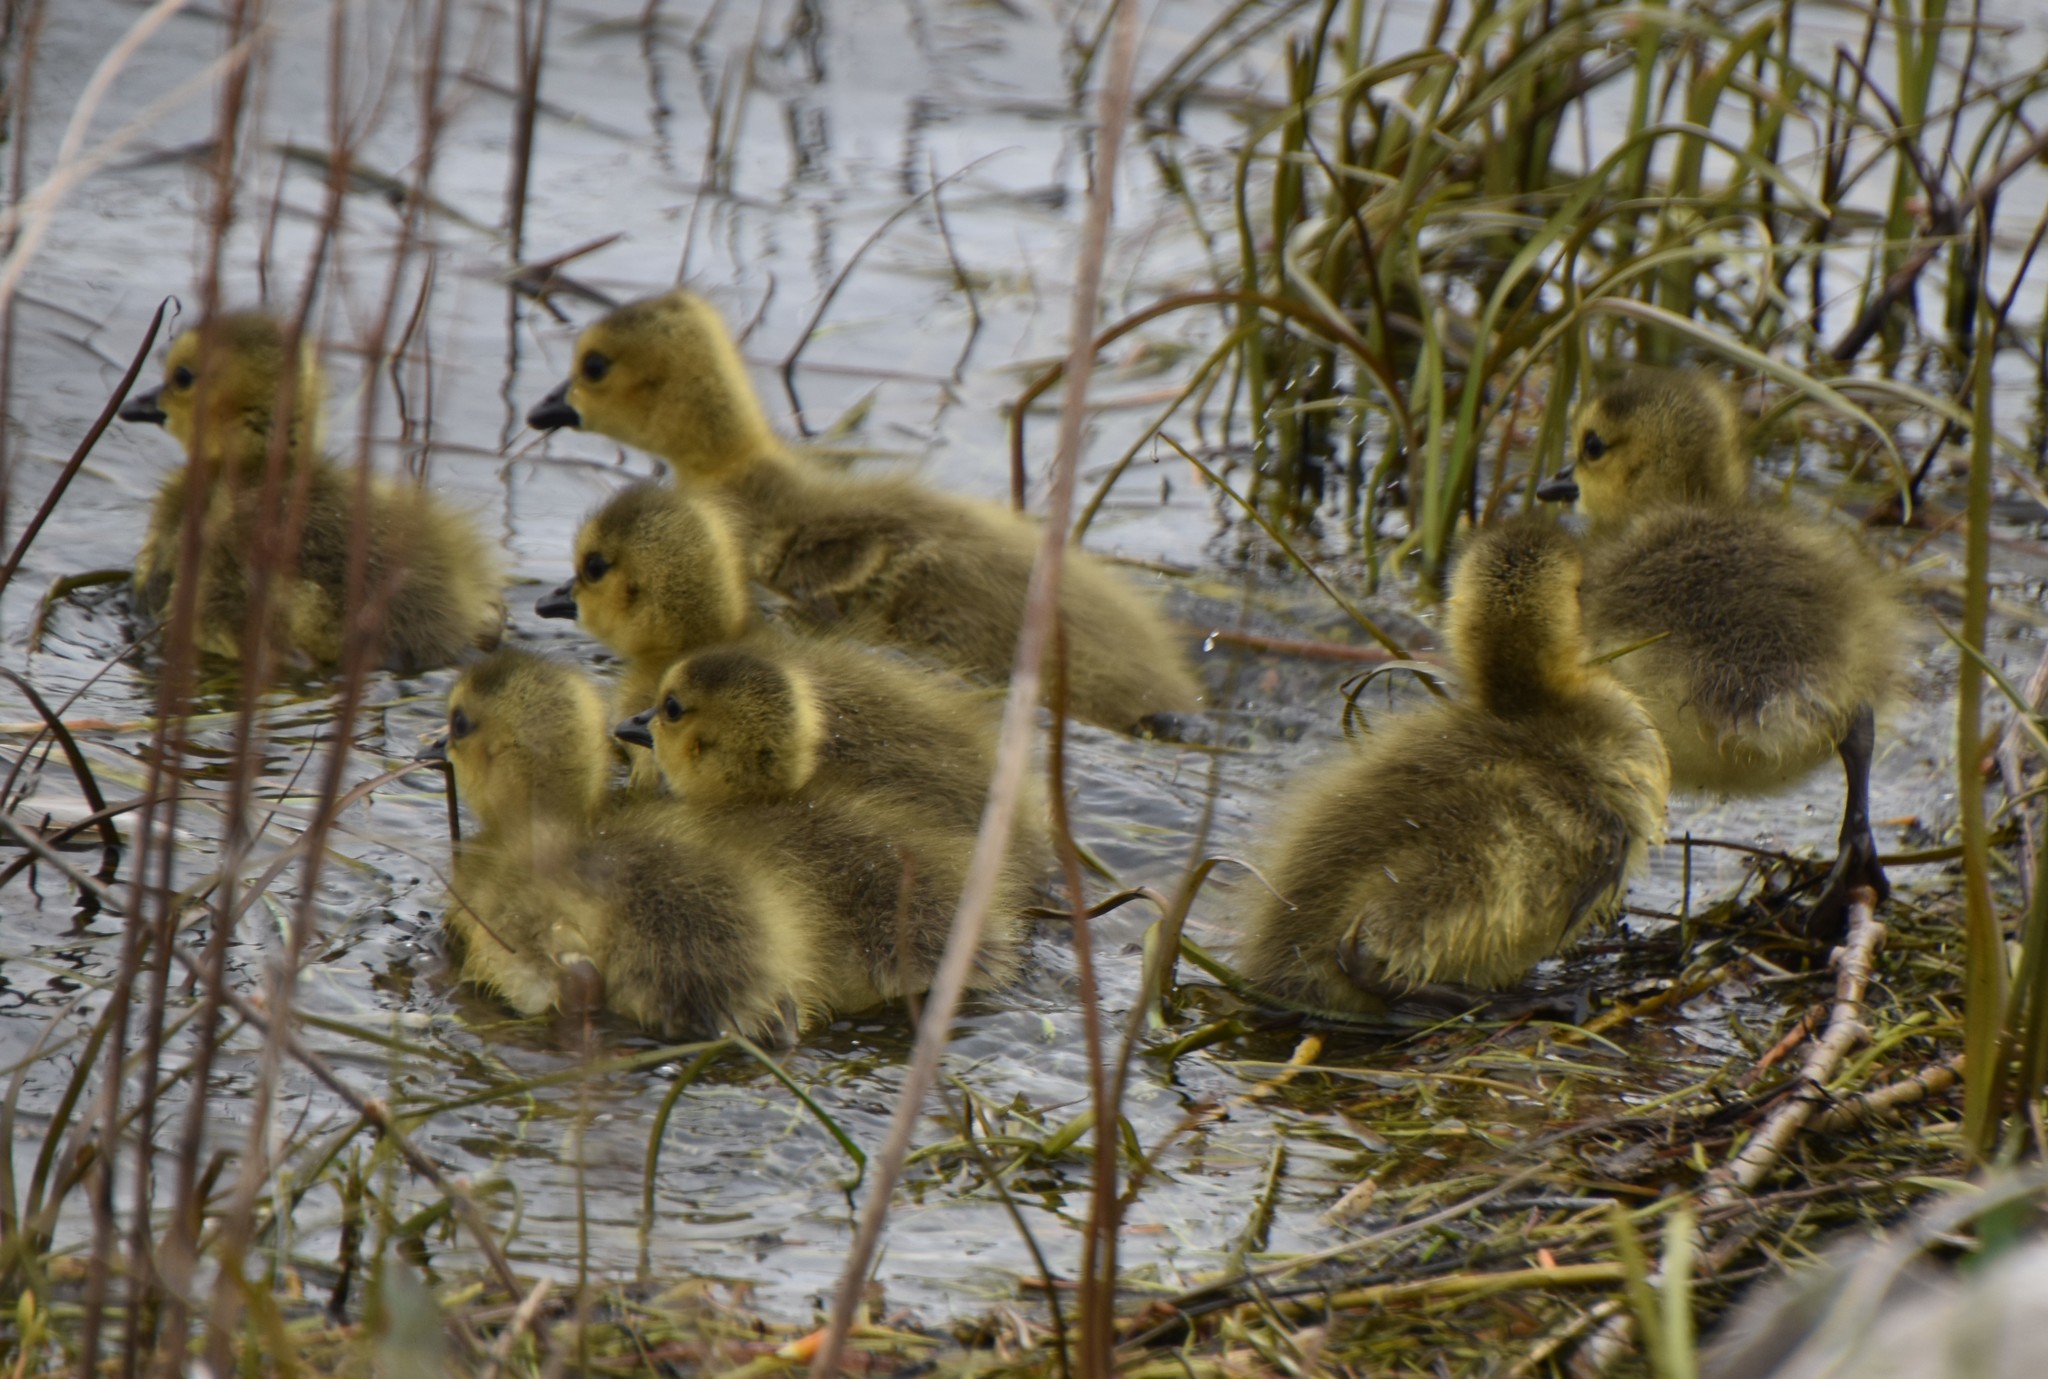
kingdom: Animalia
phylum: Chordata
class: Aves
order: Anseriformes
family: Anatidae
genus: Branta
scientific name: Branta canadensis
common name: Canada goose
